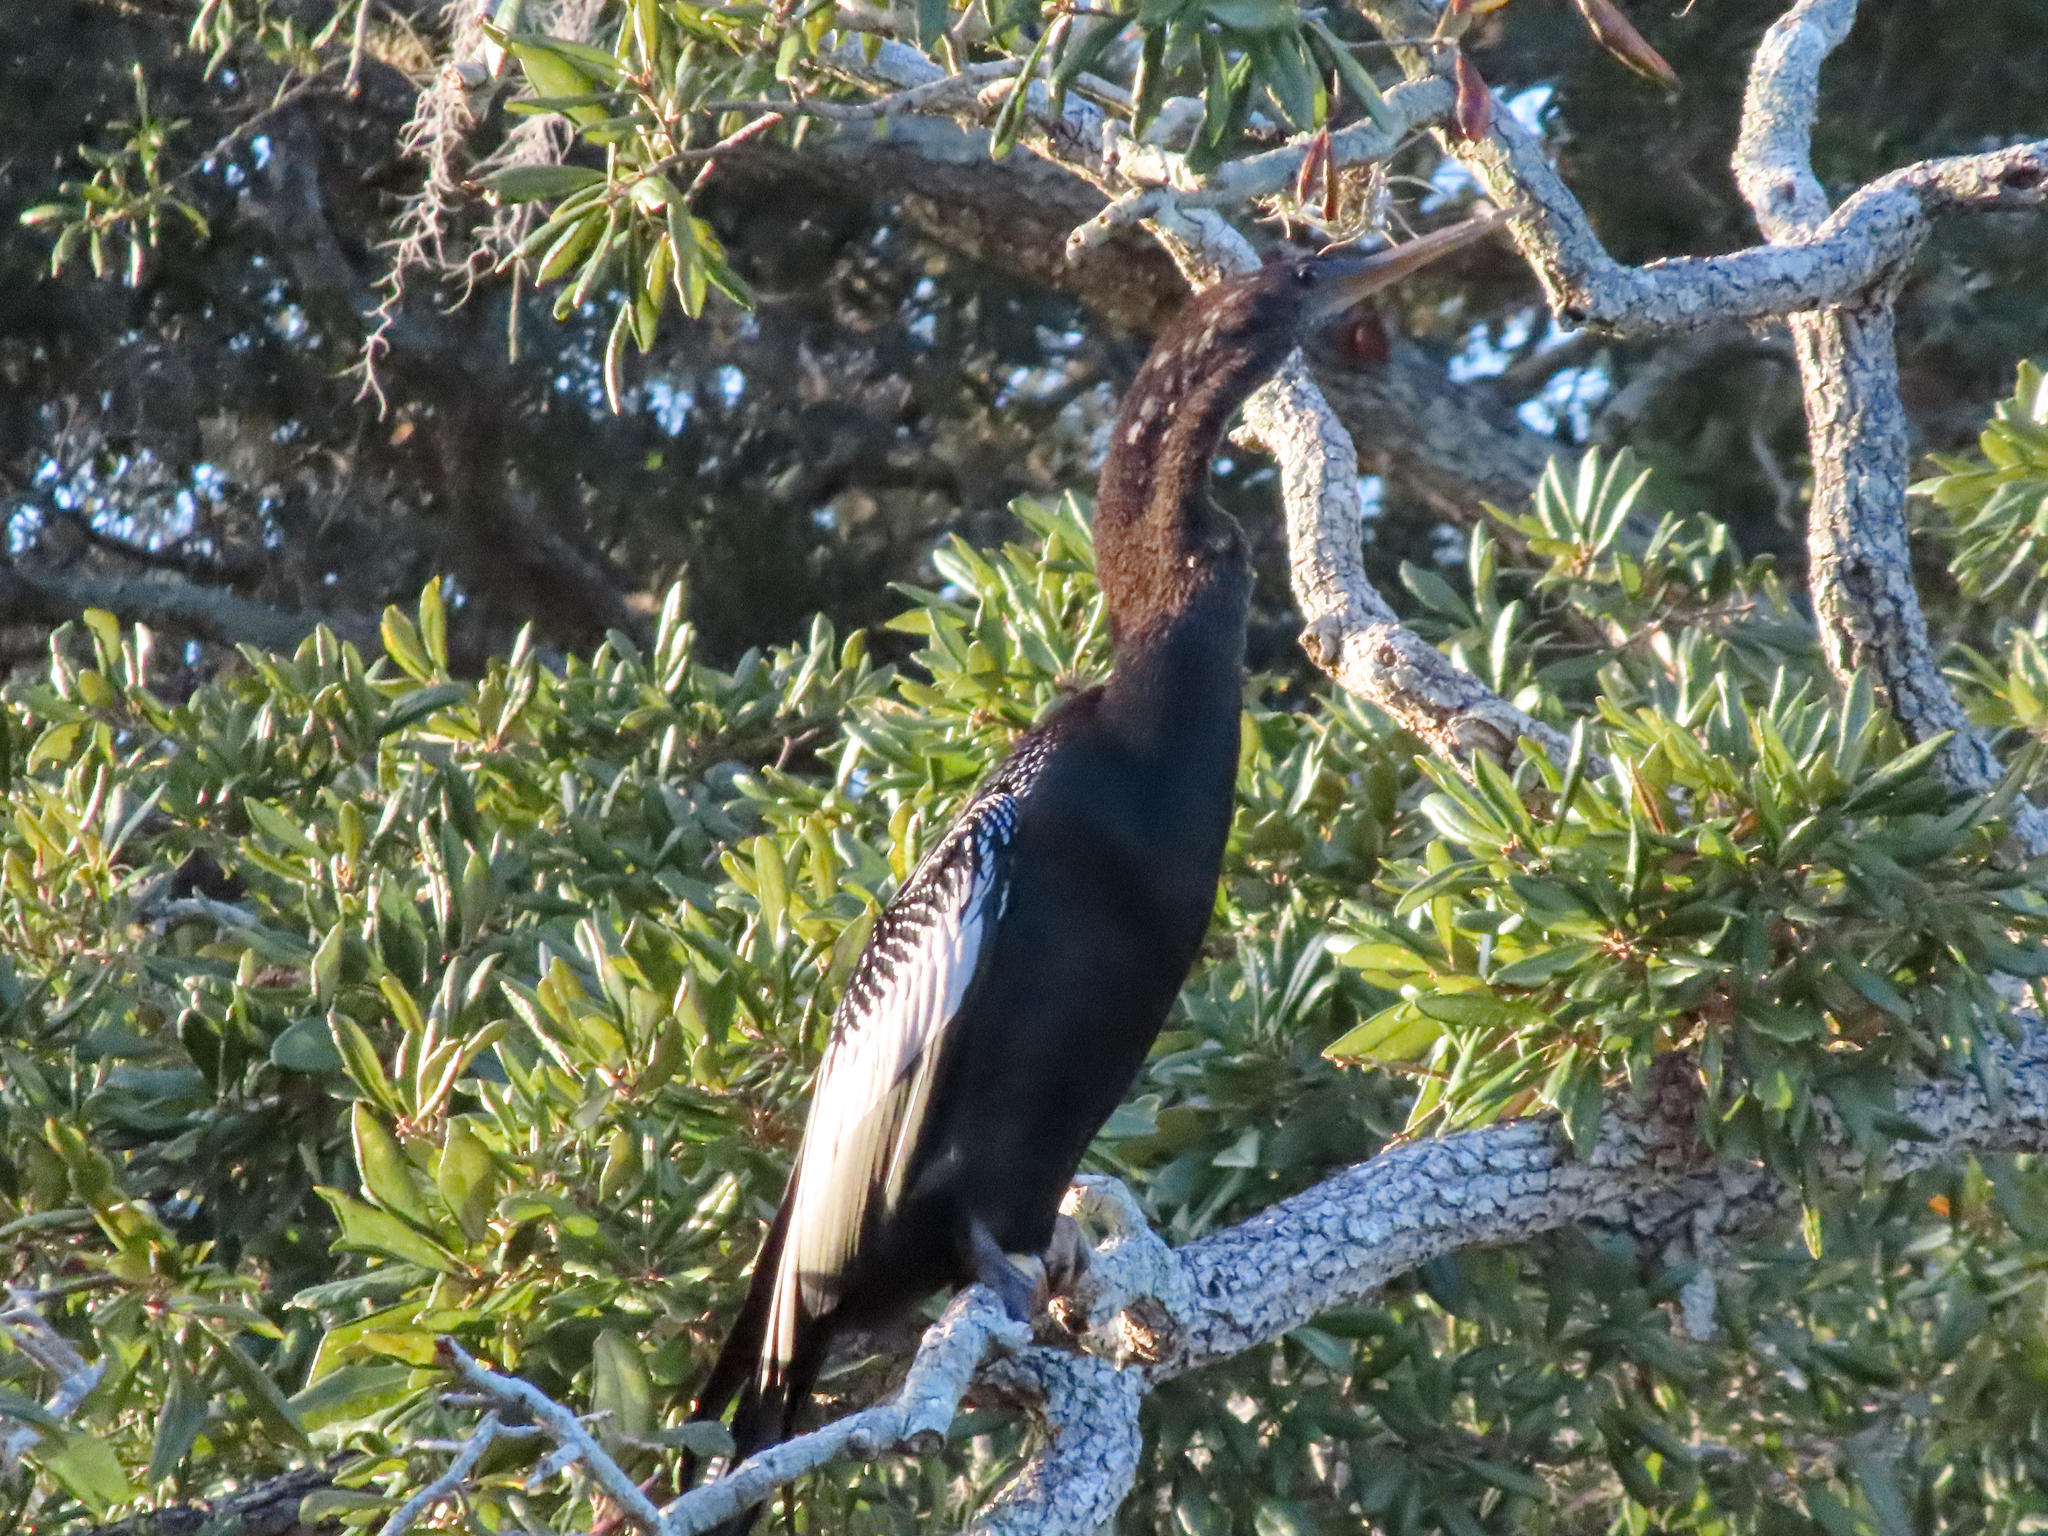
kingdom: Animalia
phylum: Chordata
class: Aves
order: Suliformes
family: Anhingidae
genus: Anhinga
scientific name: Anhinga anhinga
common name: Anhinga
